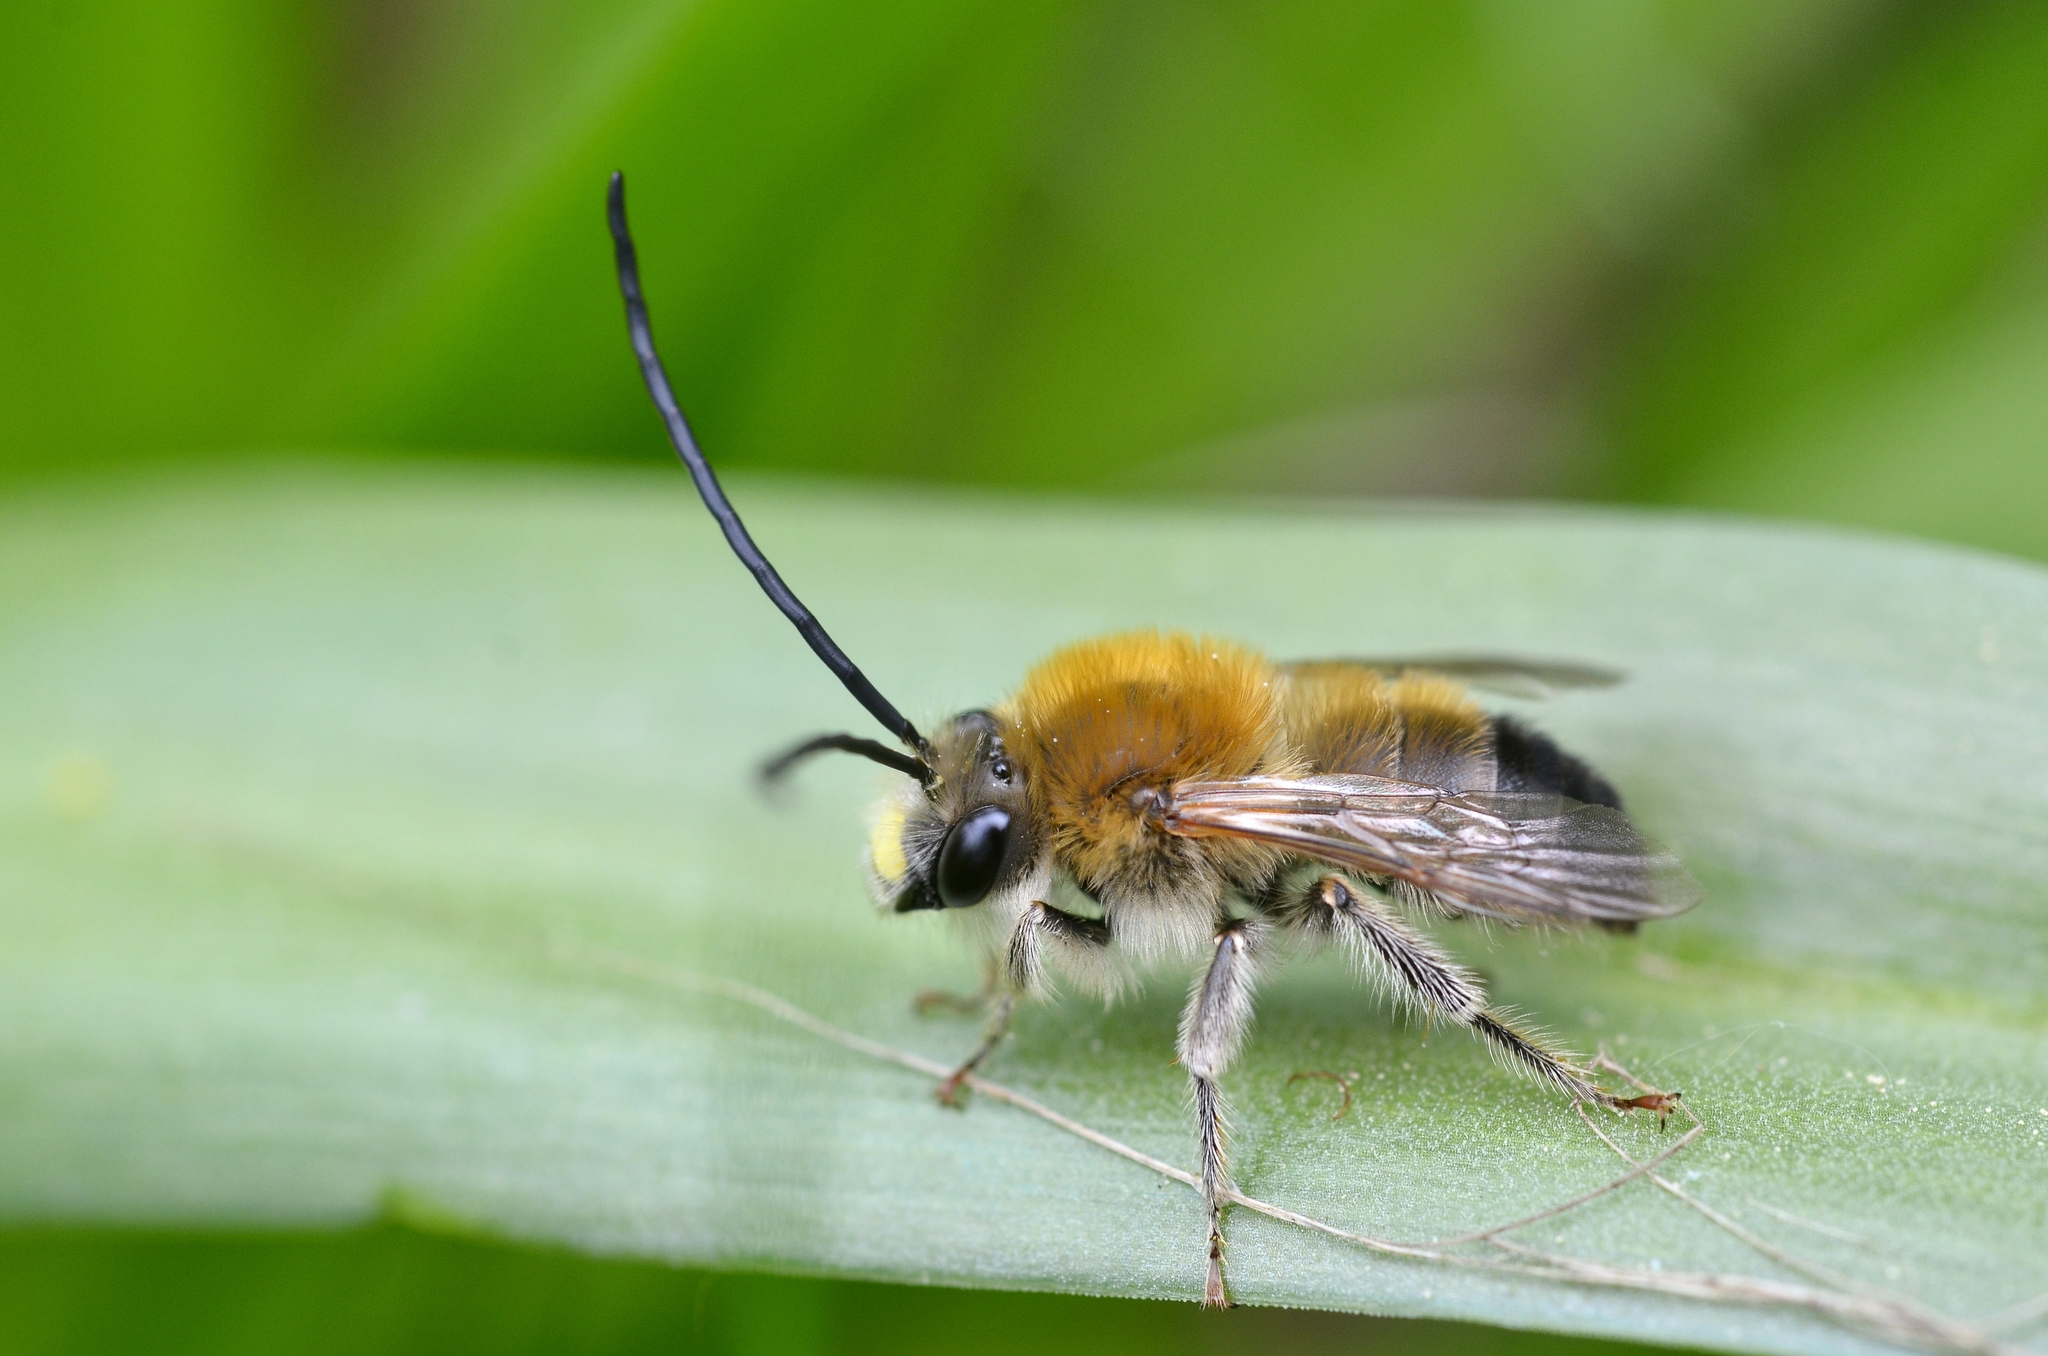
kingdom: Animalia
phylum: Arthropoda
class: Insecta
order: Hymenoptera
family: Apidae
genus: Eucera
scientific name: Eucera nigrescens
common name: Tuberculate long-horned bee
